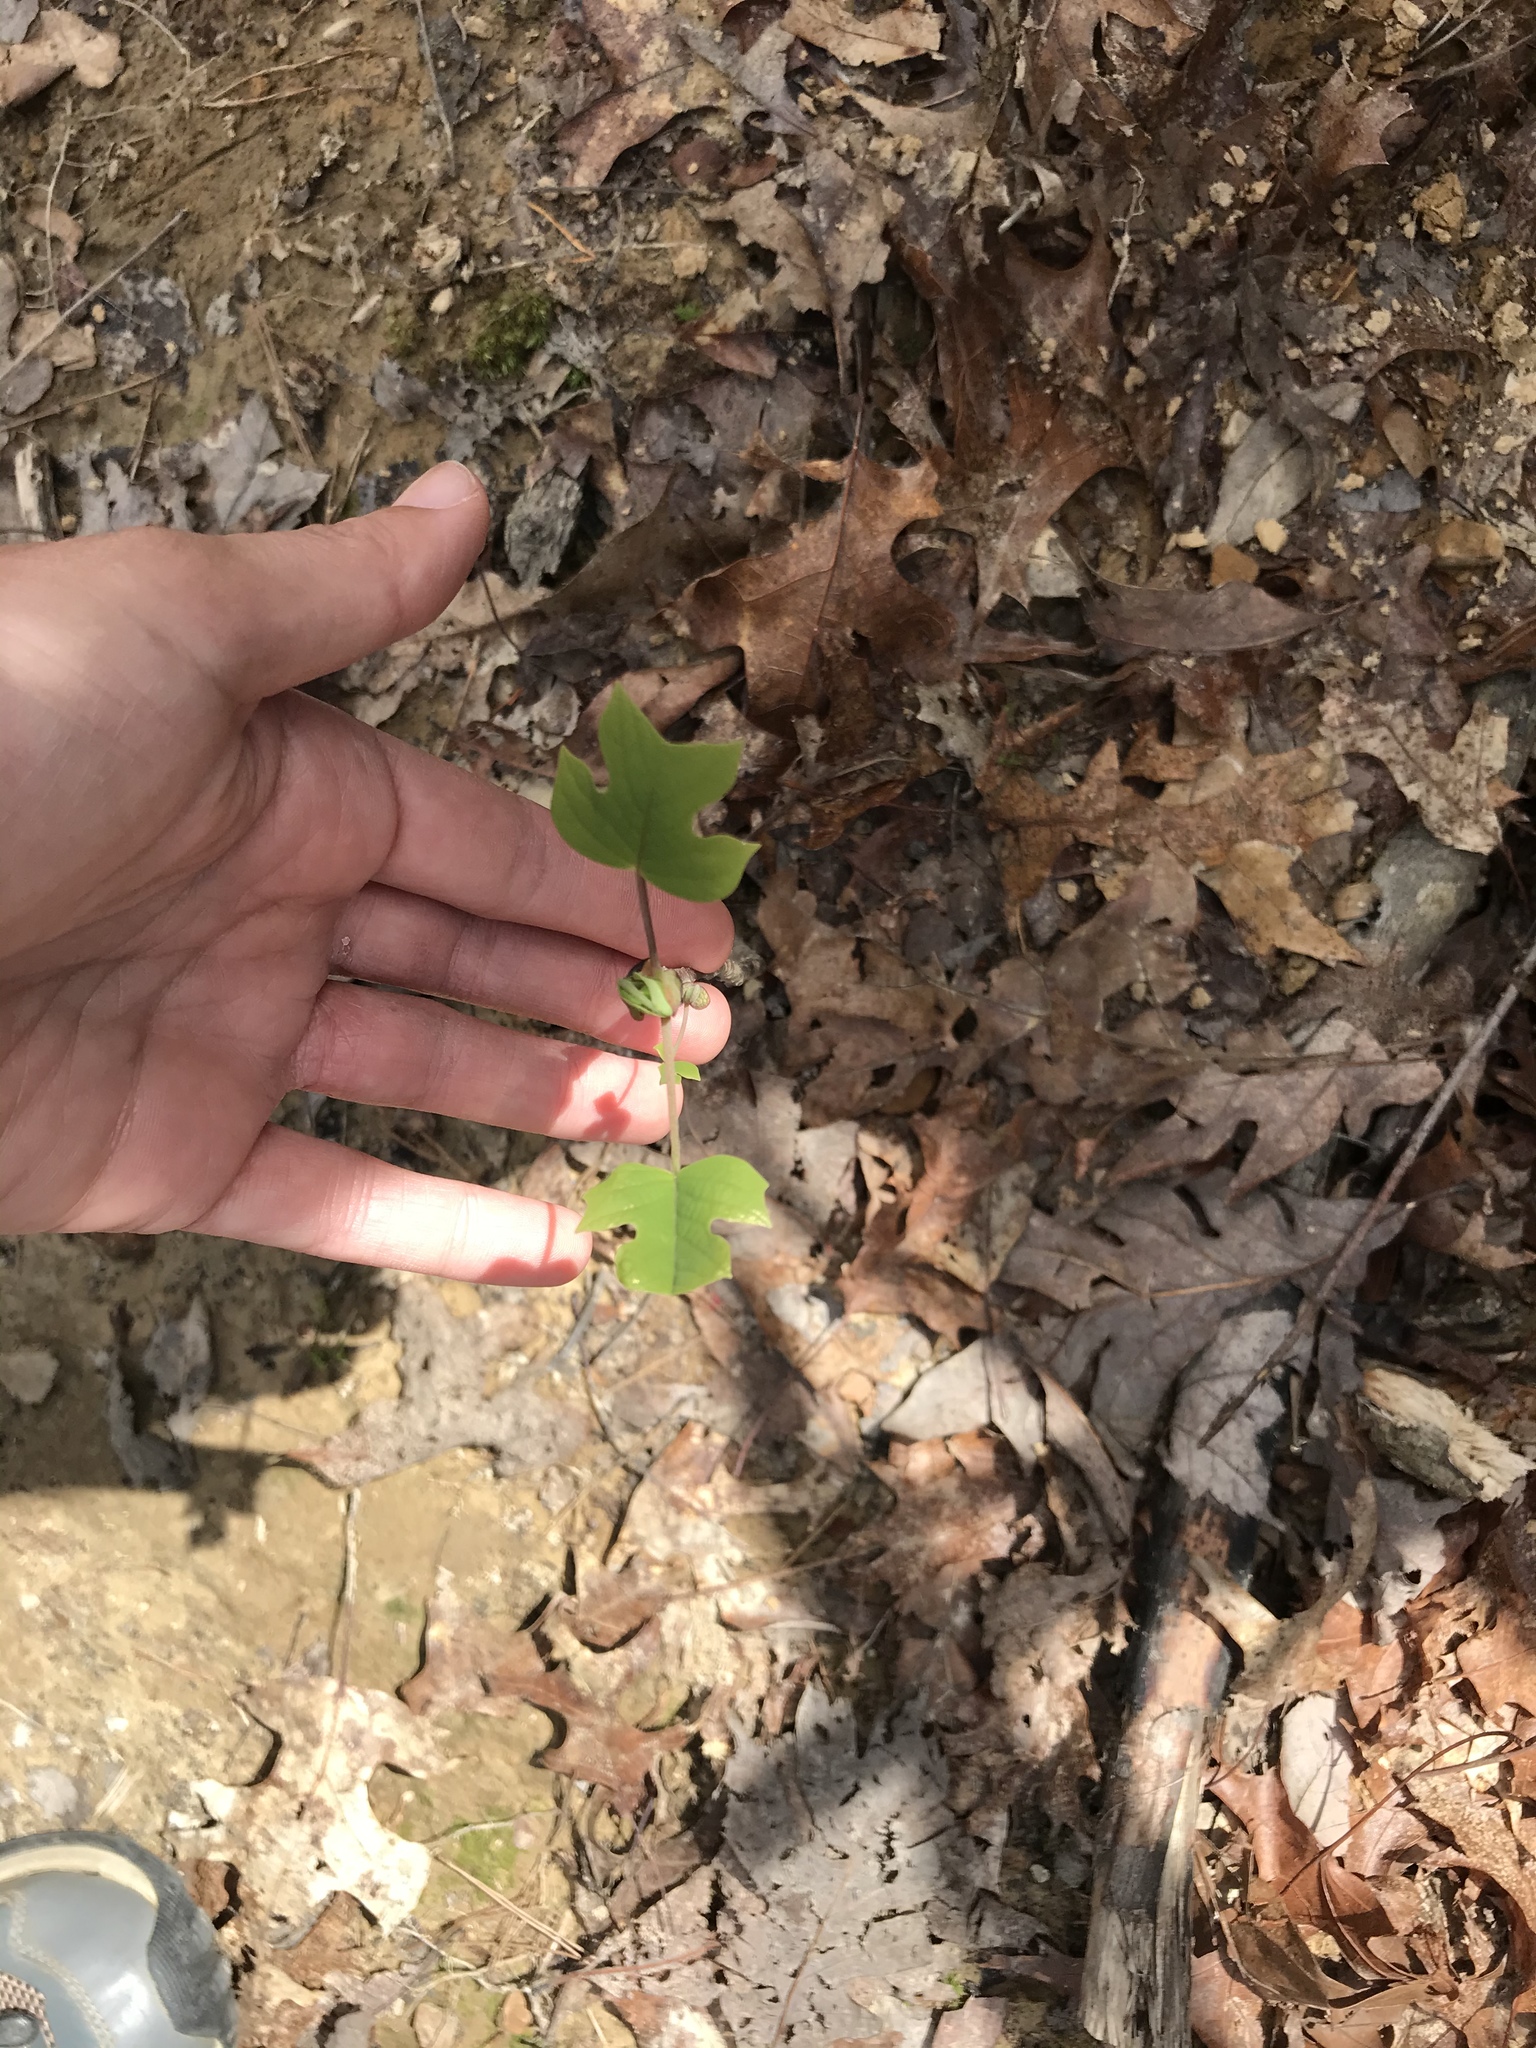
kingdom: Plantae
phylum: Tracheophyta
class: Magnoliopsida
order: Magnoliales
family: Magnoliaceae
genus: Liriodendron
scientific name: Liriodendron tulipifera
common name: Tulip tree
